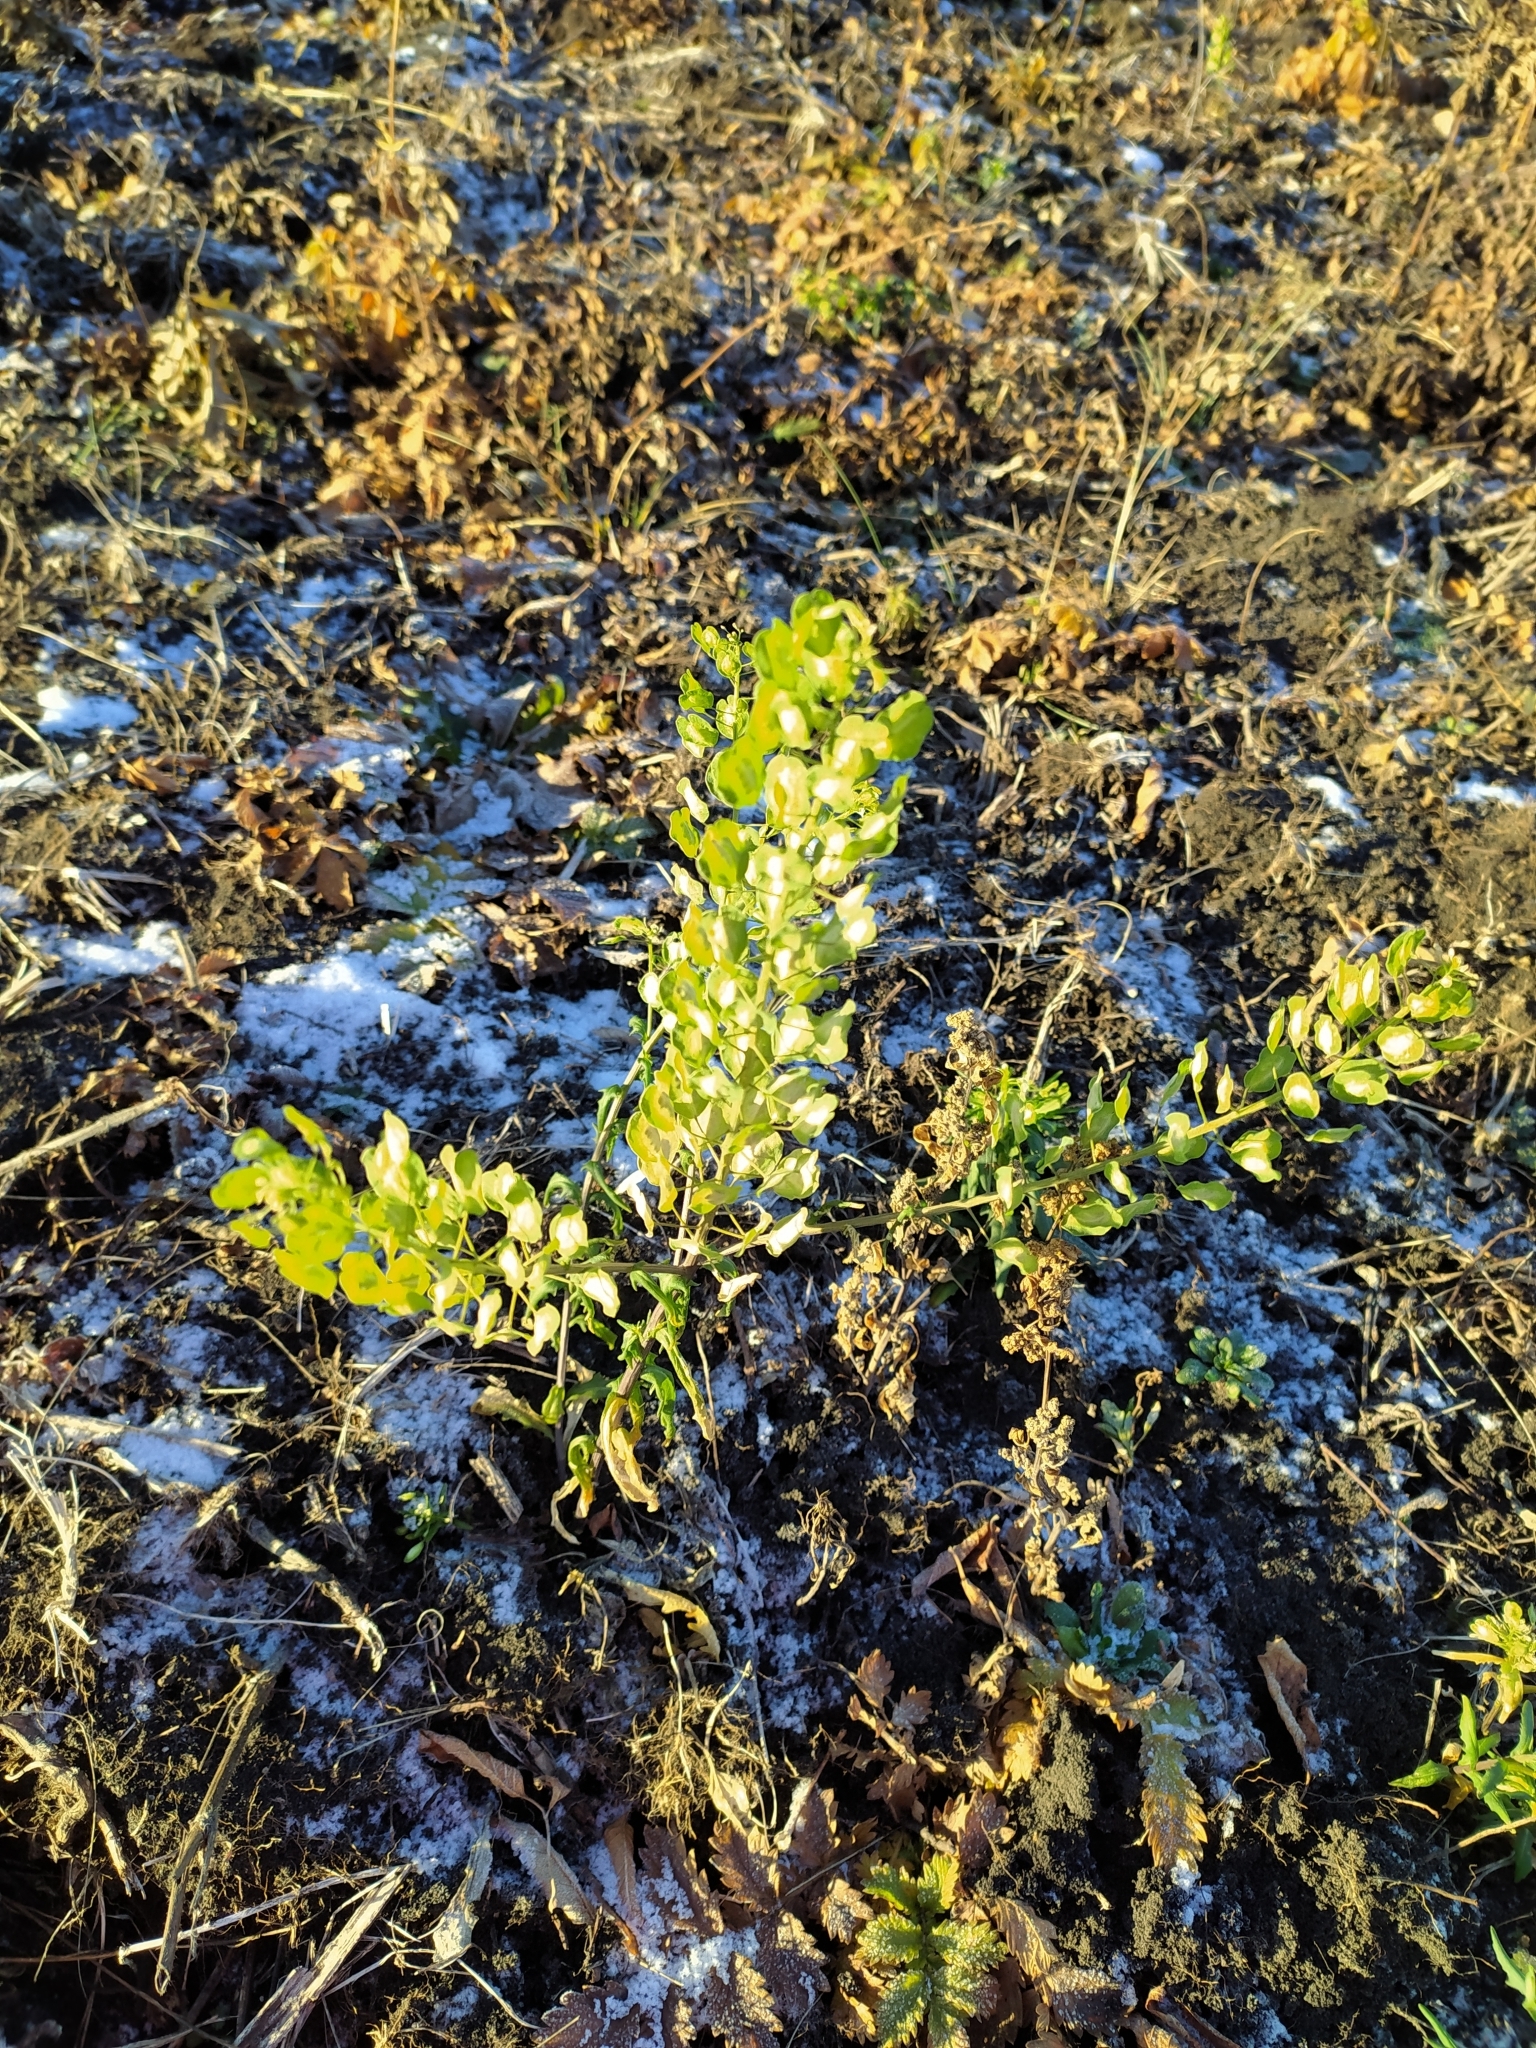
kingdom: Plantae
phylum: Tracheophyta
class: Magnoliopsida
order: Brassicales
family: Brassicaceae
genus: Thlaspi
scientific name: Thlaspi arvense
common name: Field pennycress
